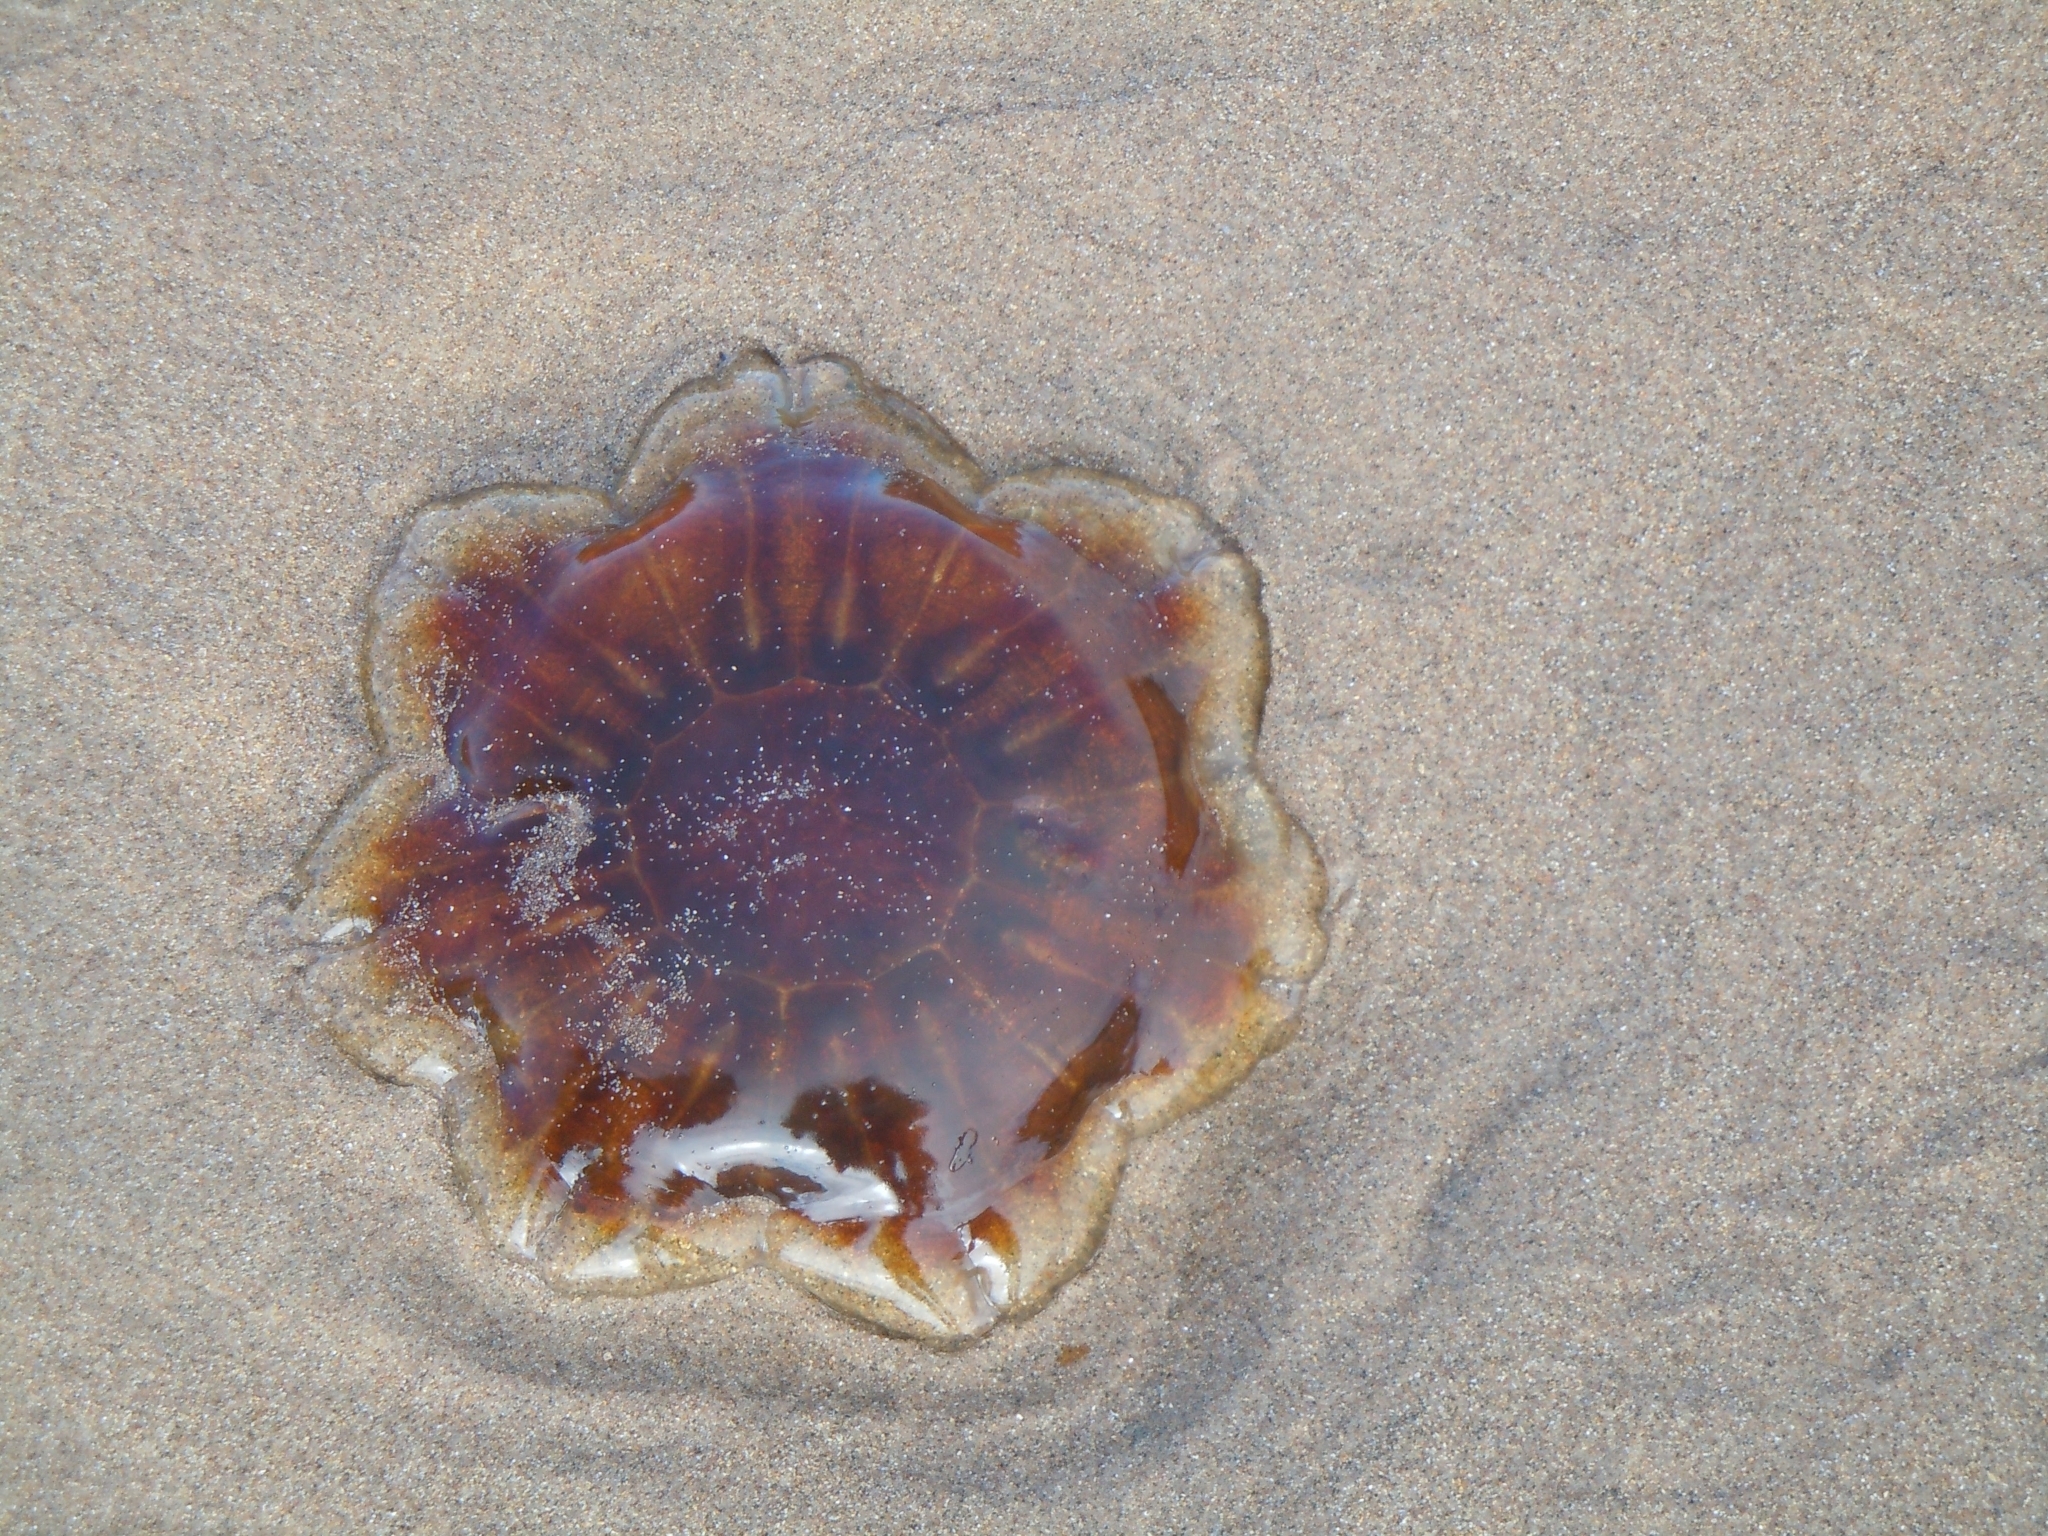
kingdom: Animalia
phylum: Cnidaria
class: Scyphozoa
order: Semaeostomeae
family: Cyaneidae
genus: Cyanea
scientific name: Cyanea capillata
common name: Lion's mane jellyfish
